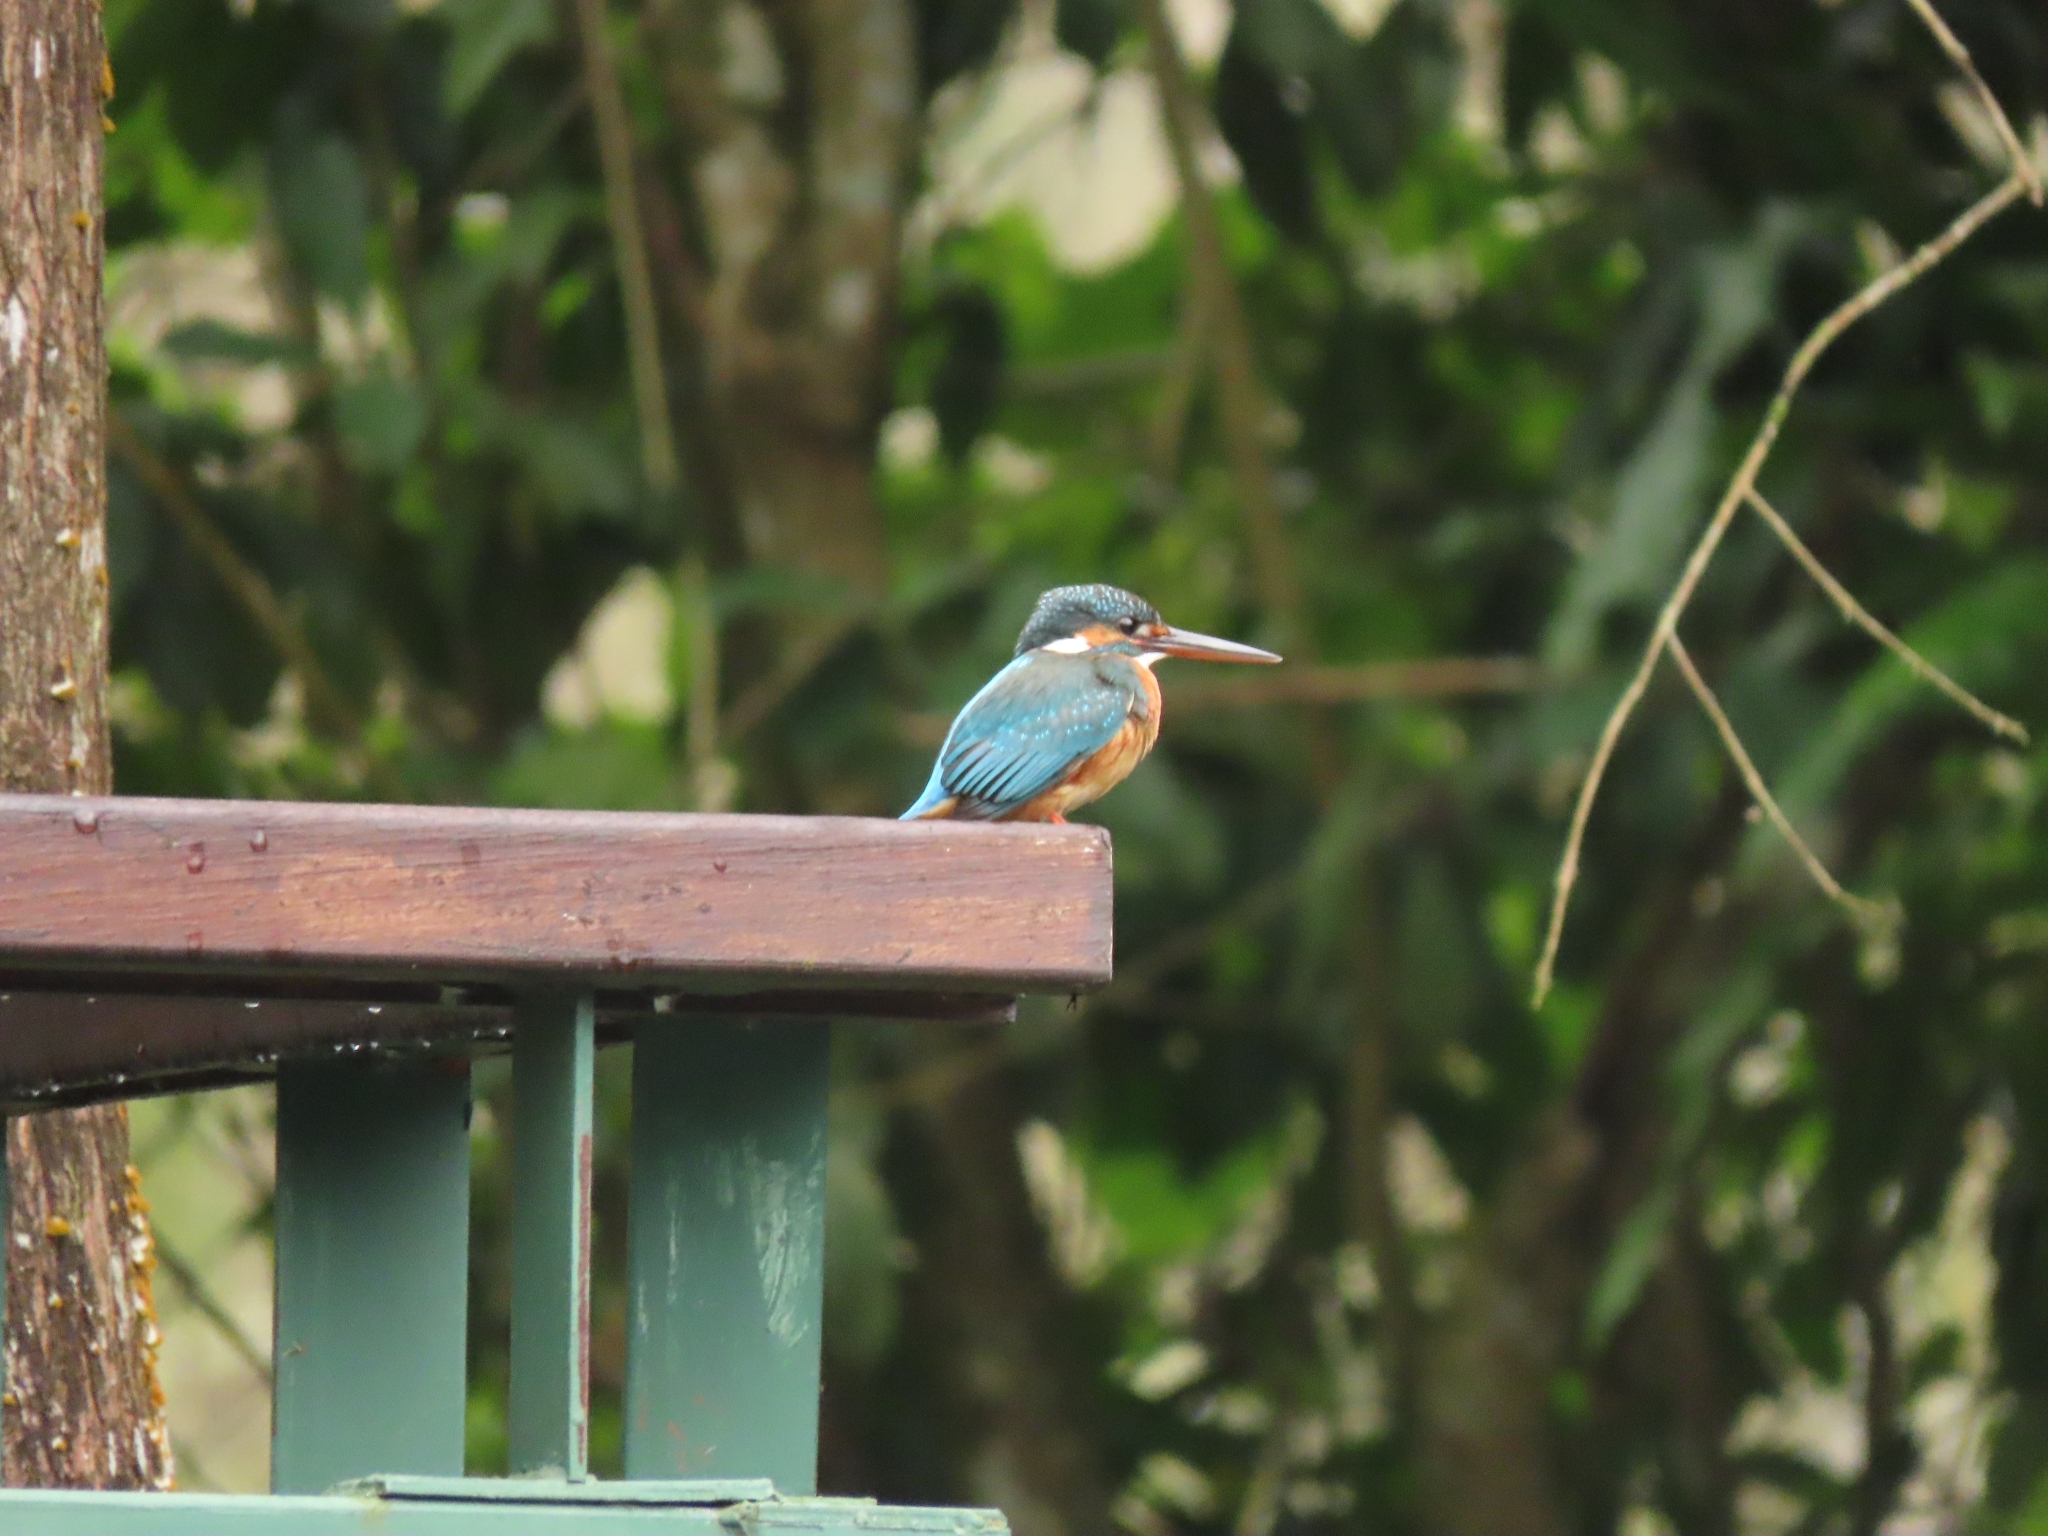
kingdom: Animalia
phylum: Chordata
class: Aves
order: Coraciiformes
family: Alcedinidae
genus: Alcedo
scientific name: Alcedo atthis
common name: Common kingfisher
